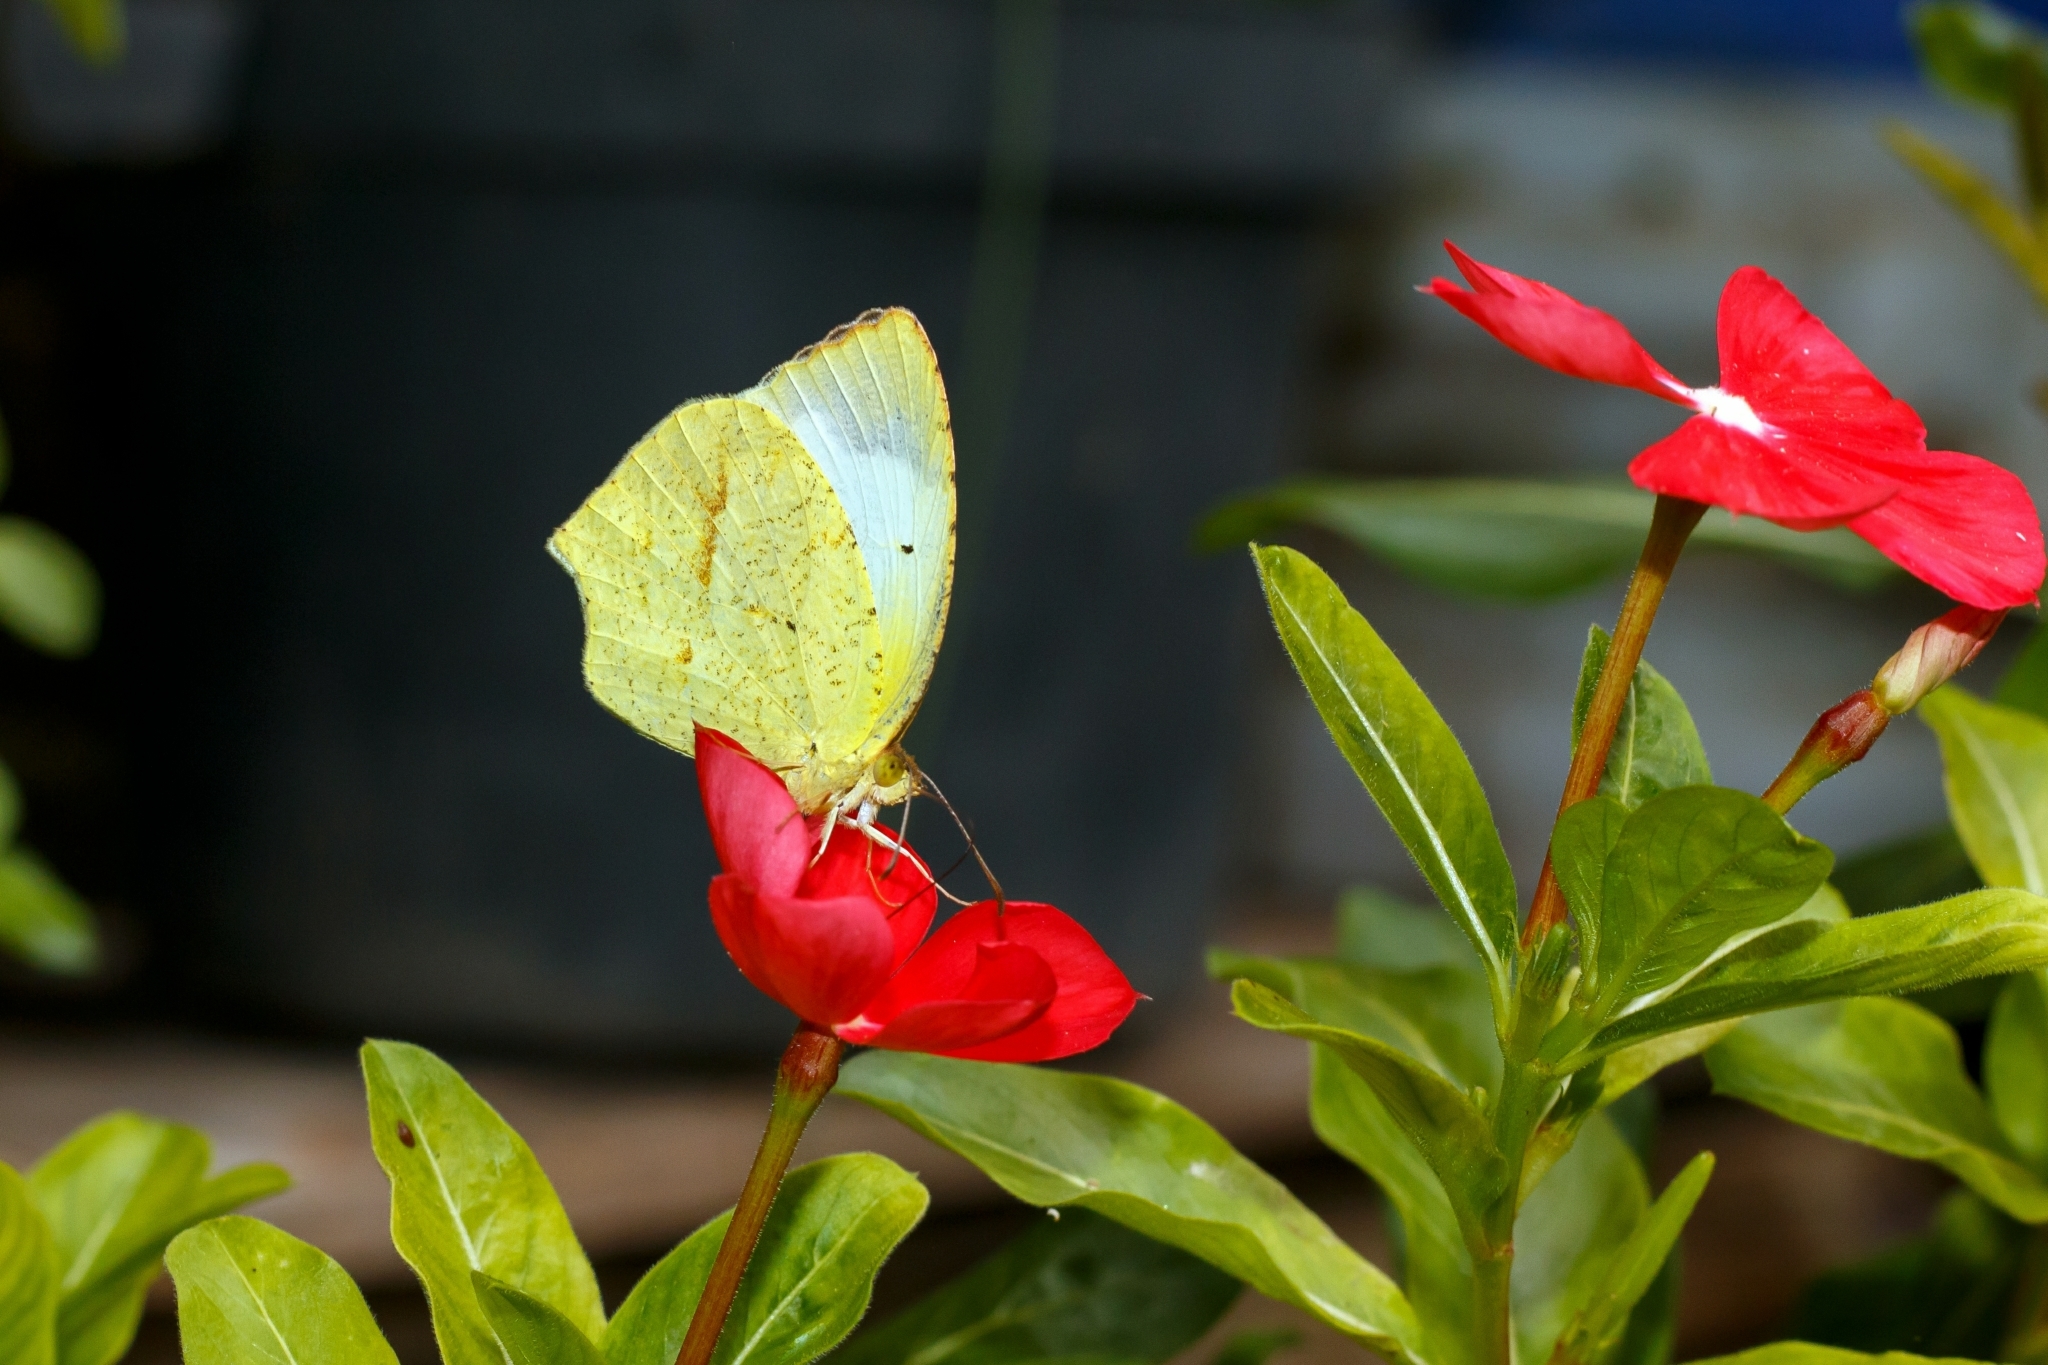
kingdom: Animalia
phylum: Arthropoda
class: Insecta
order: Lepidoptera
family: Pieridae
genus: Abaeis
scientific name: Abaeis mexicana
